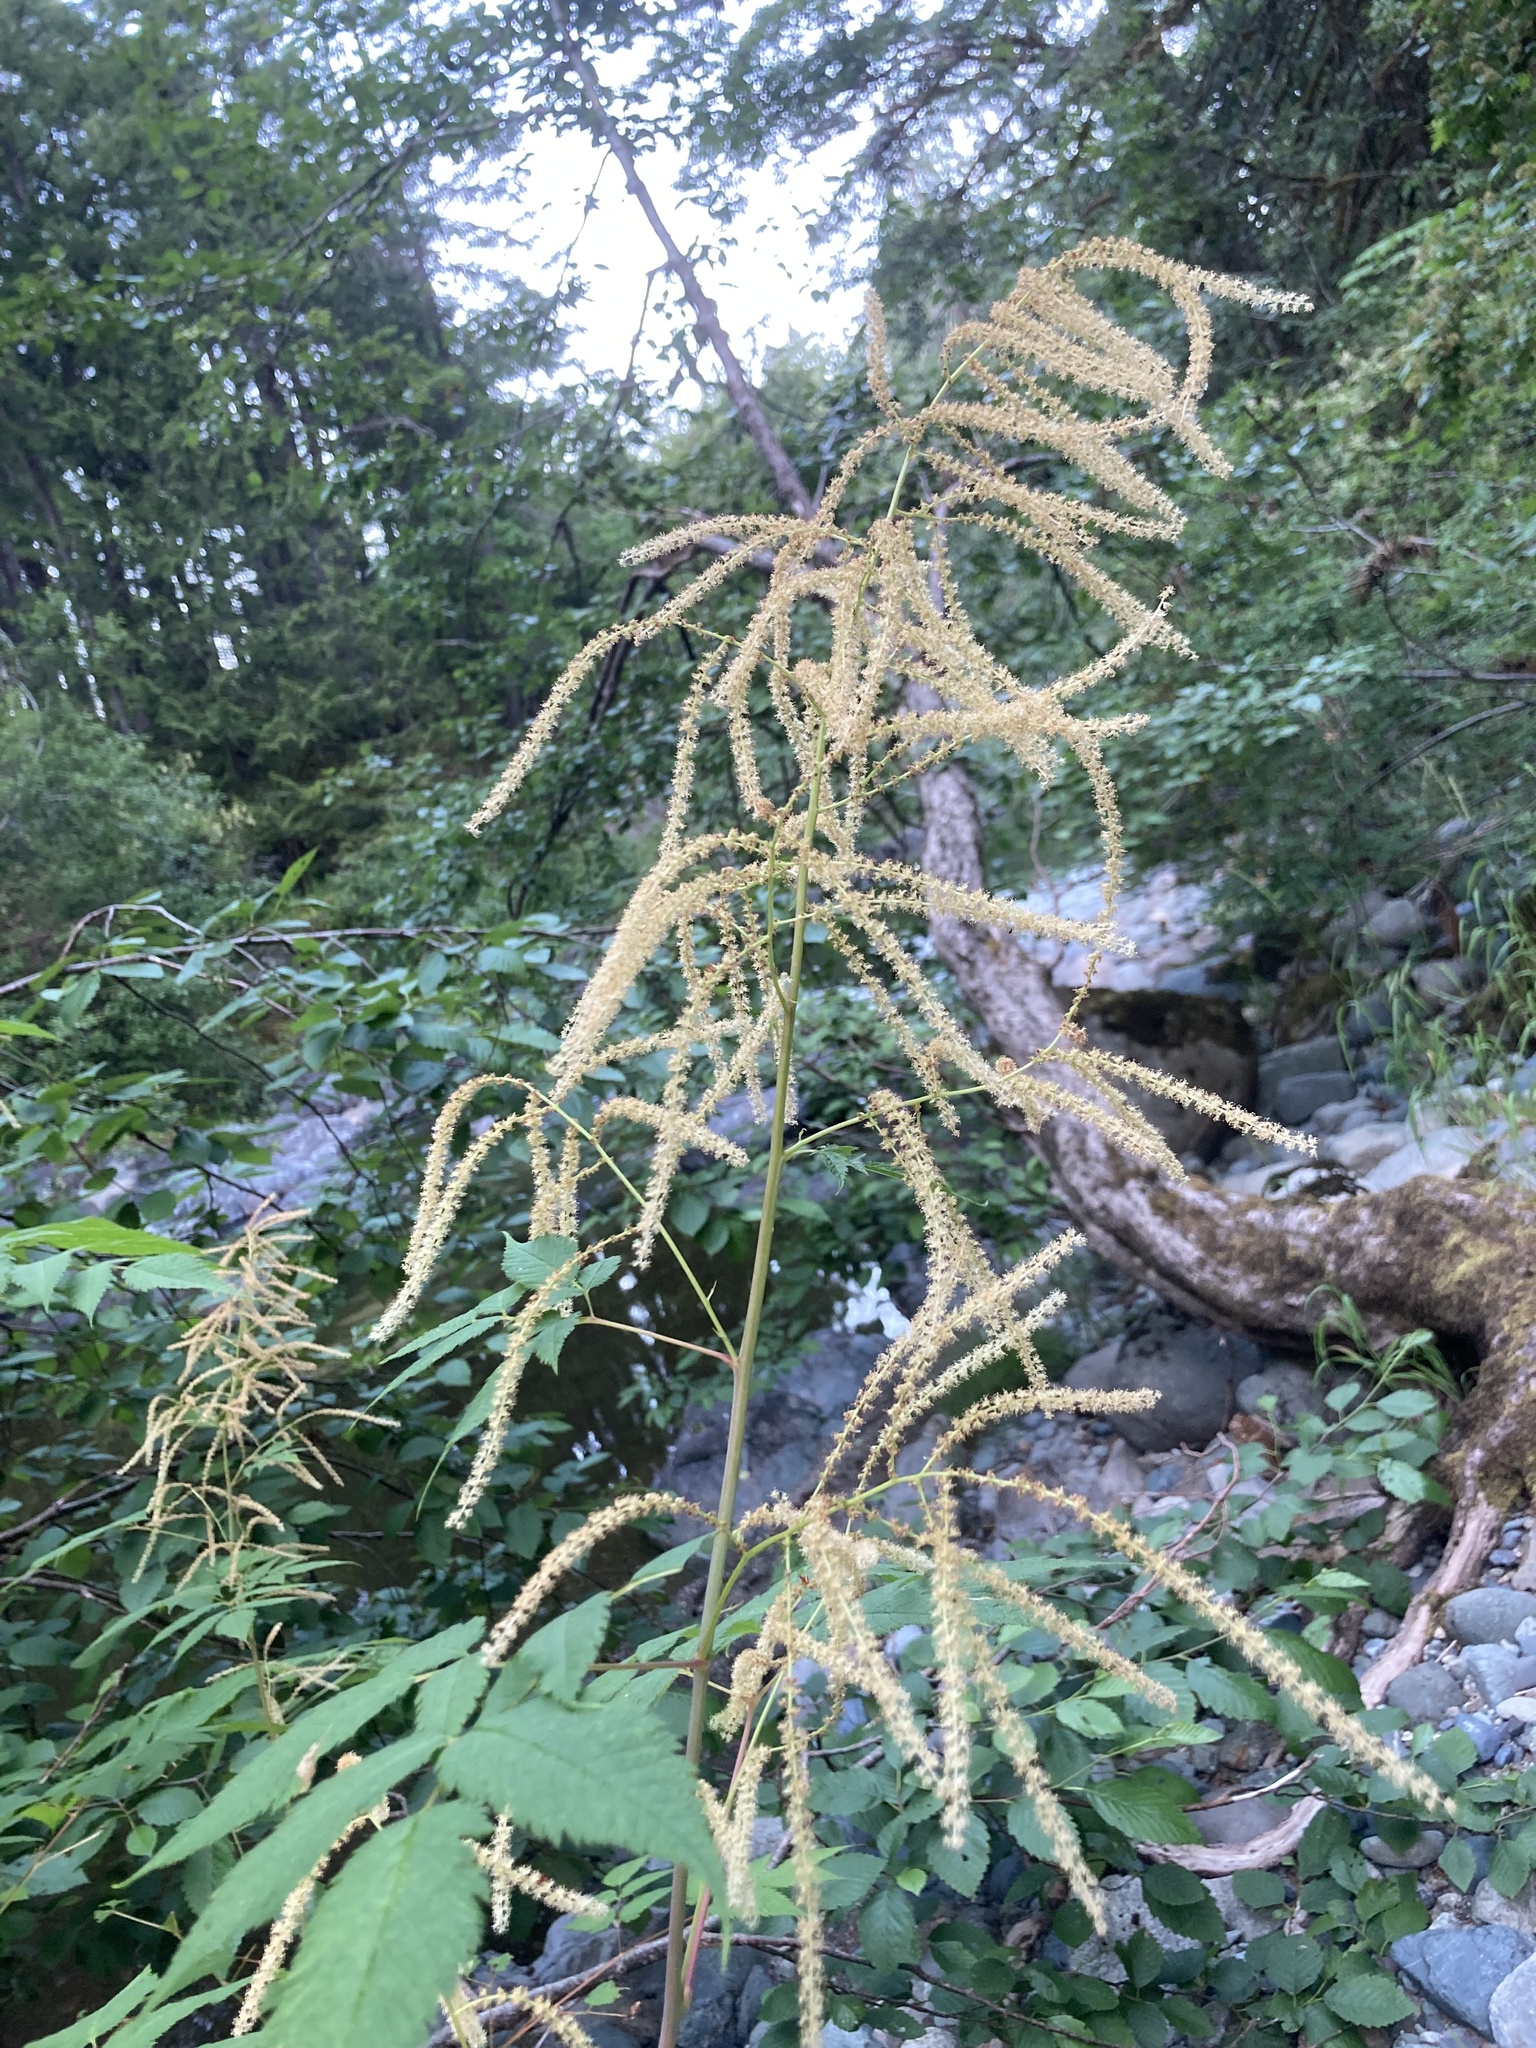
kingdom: Plantae
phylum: Tracheophyta
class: Magnoliopsida
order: Rosales
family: Rosaceae
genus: Aruncus
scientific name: Aruncus dioicus
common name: Buck's-beard
